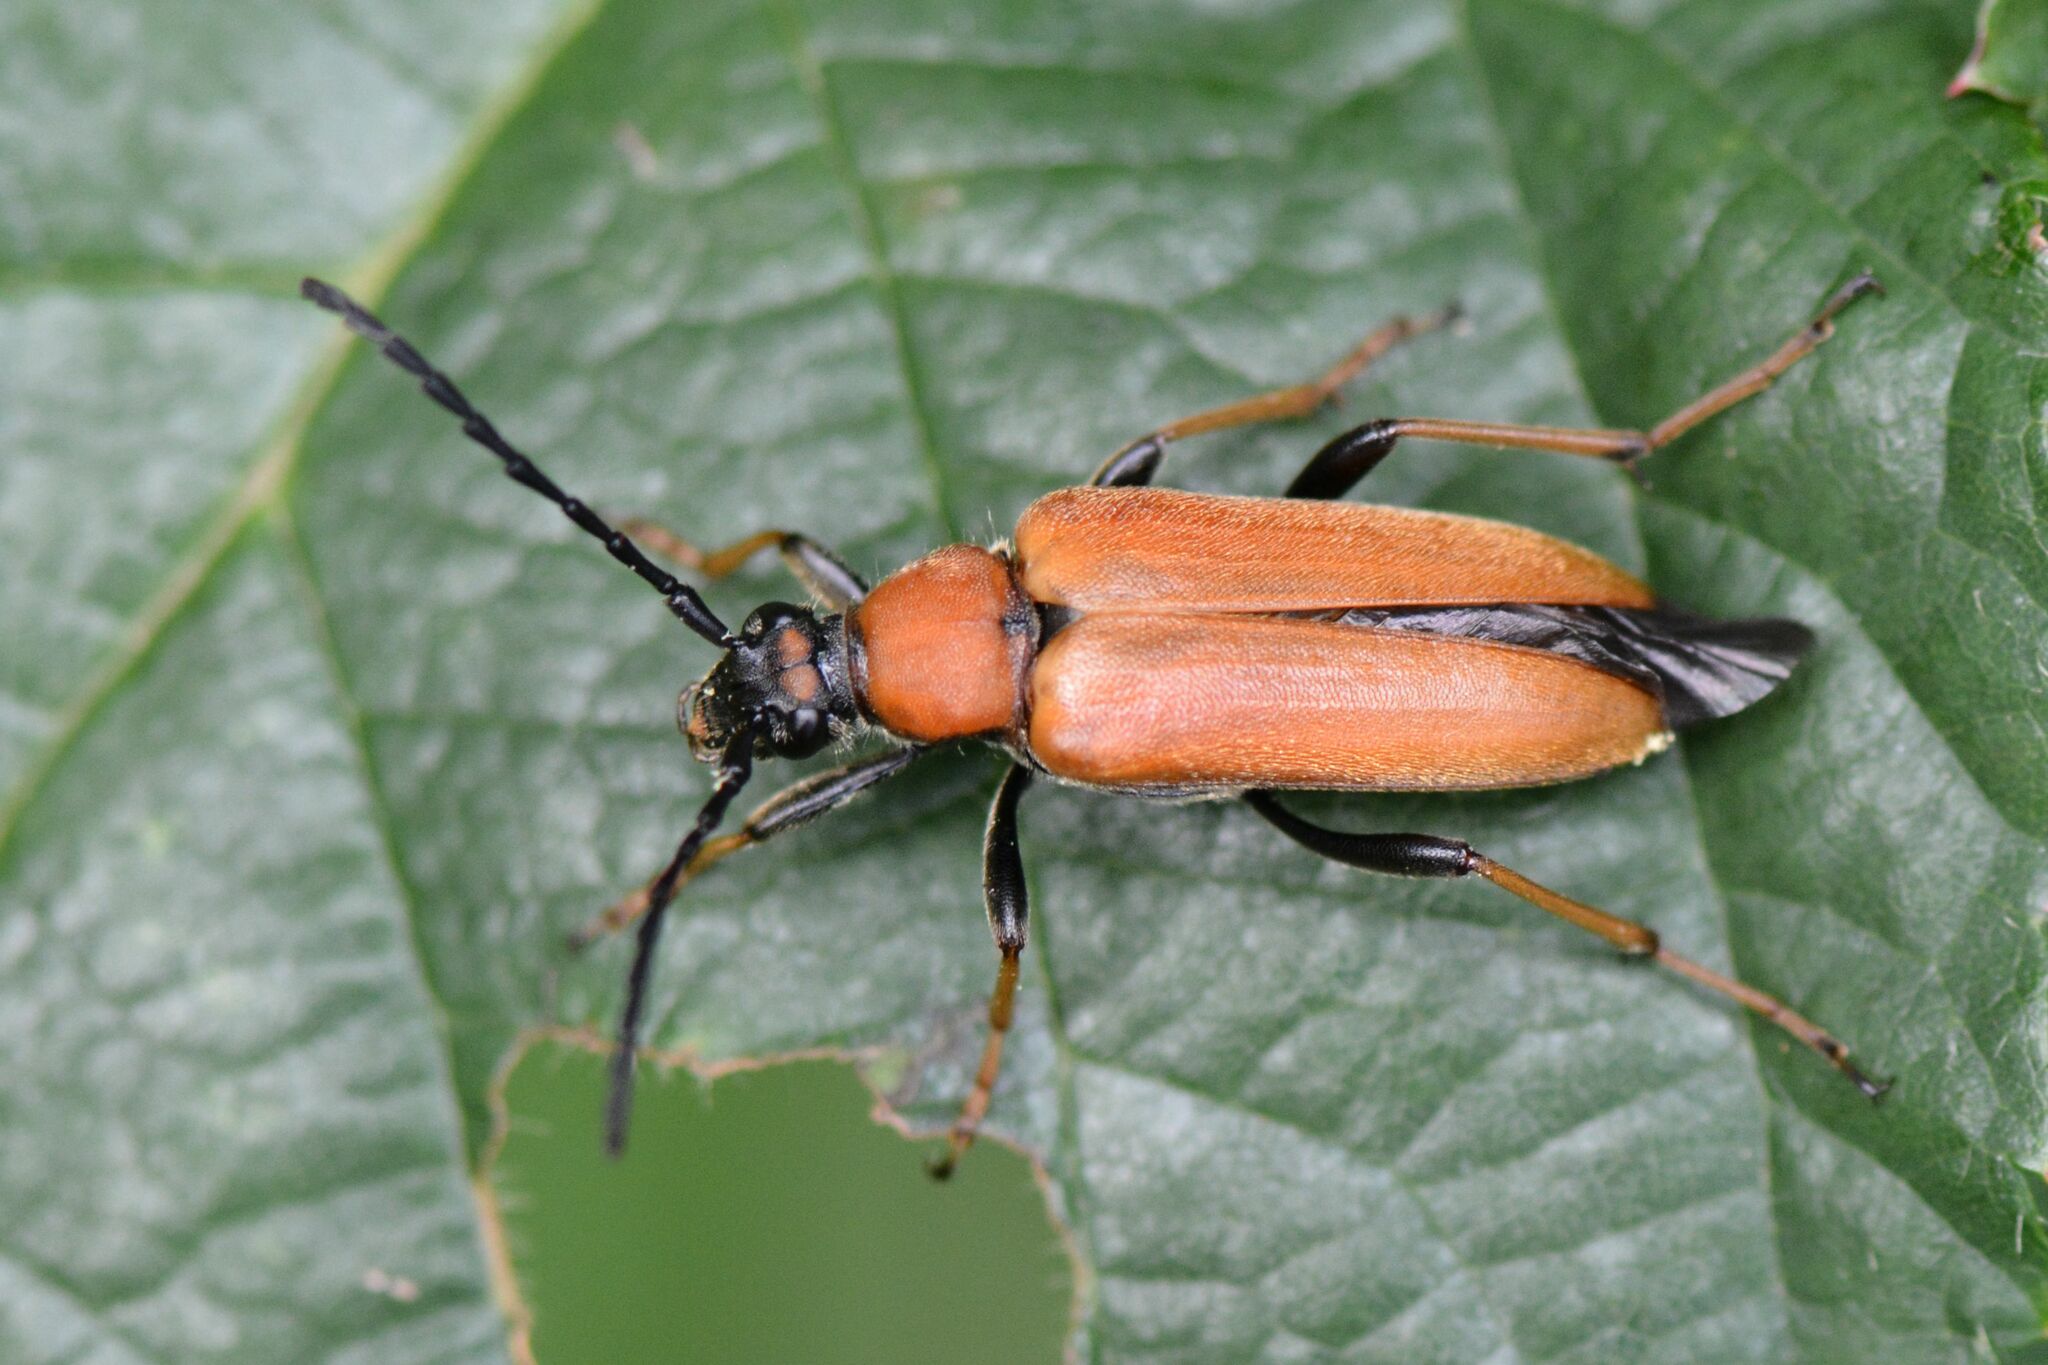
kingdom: Animalia
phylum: Arthropoda
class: Insecta
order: Coleoptera
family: Cerambycidae
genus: Stictoleptura
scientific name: Stictoleptura rubra
